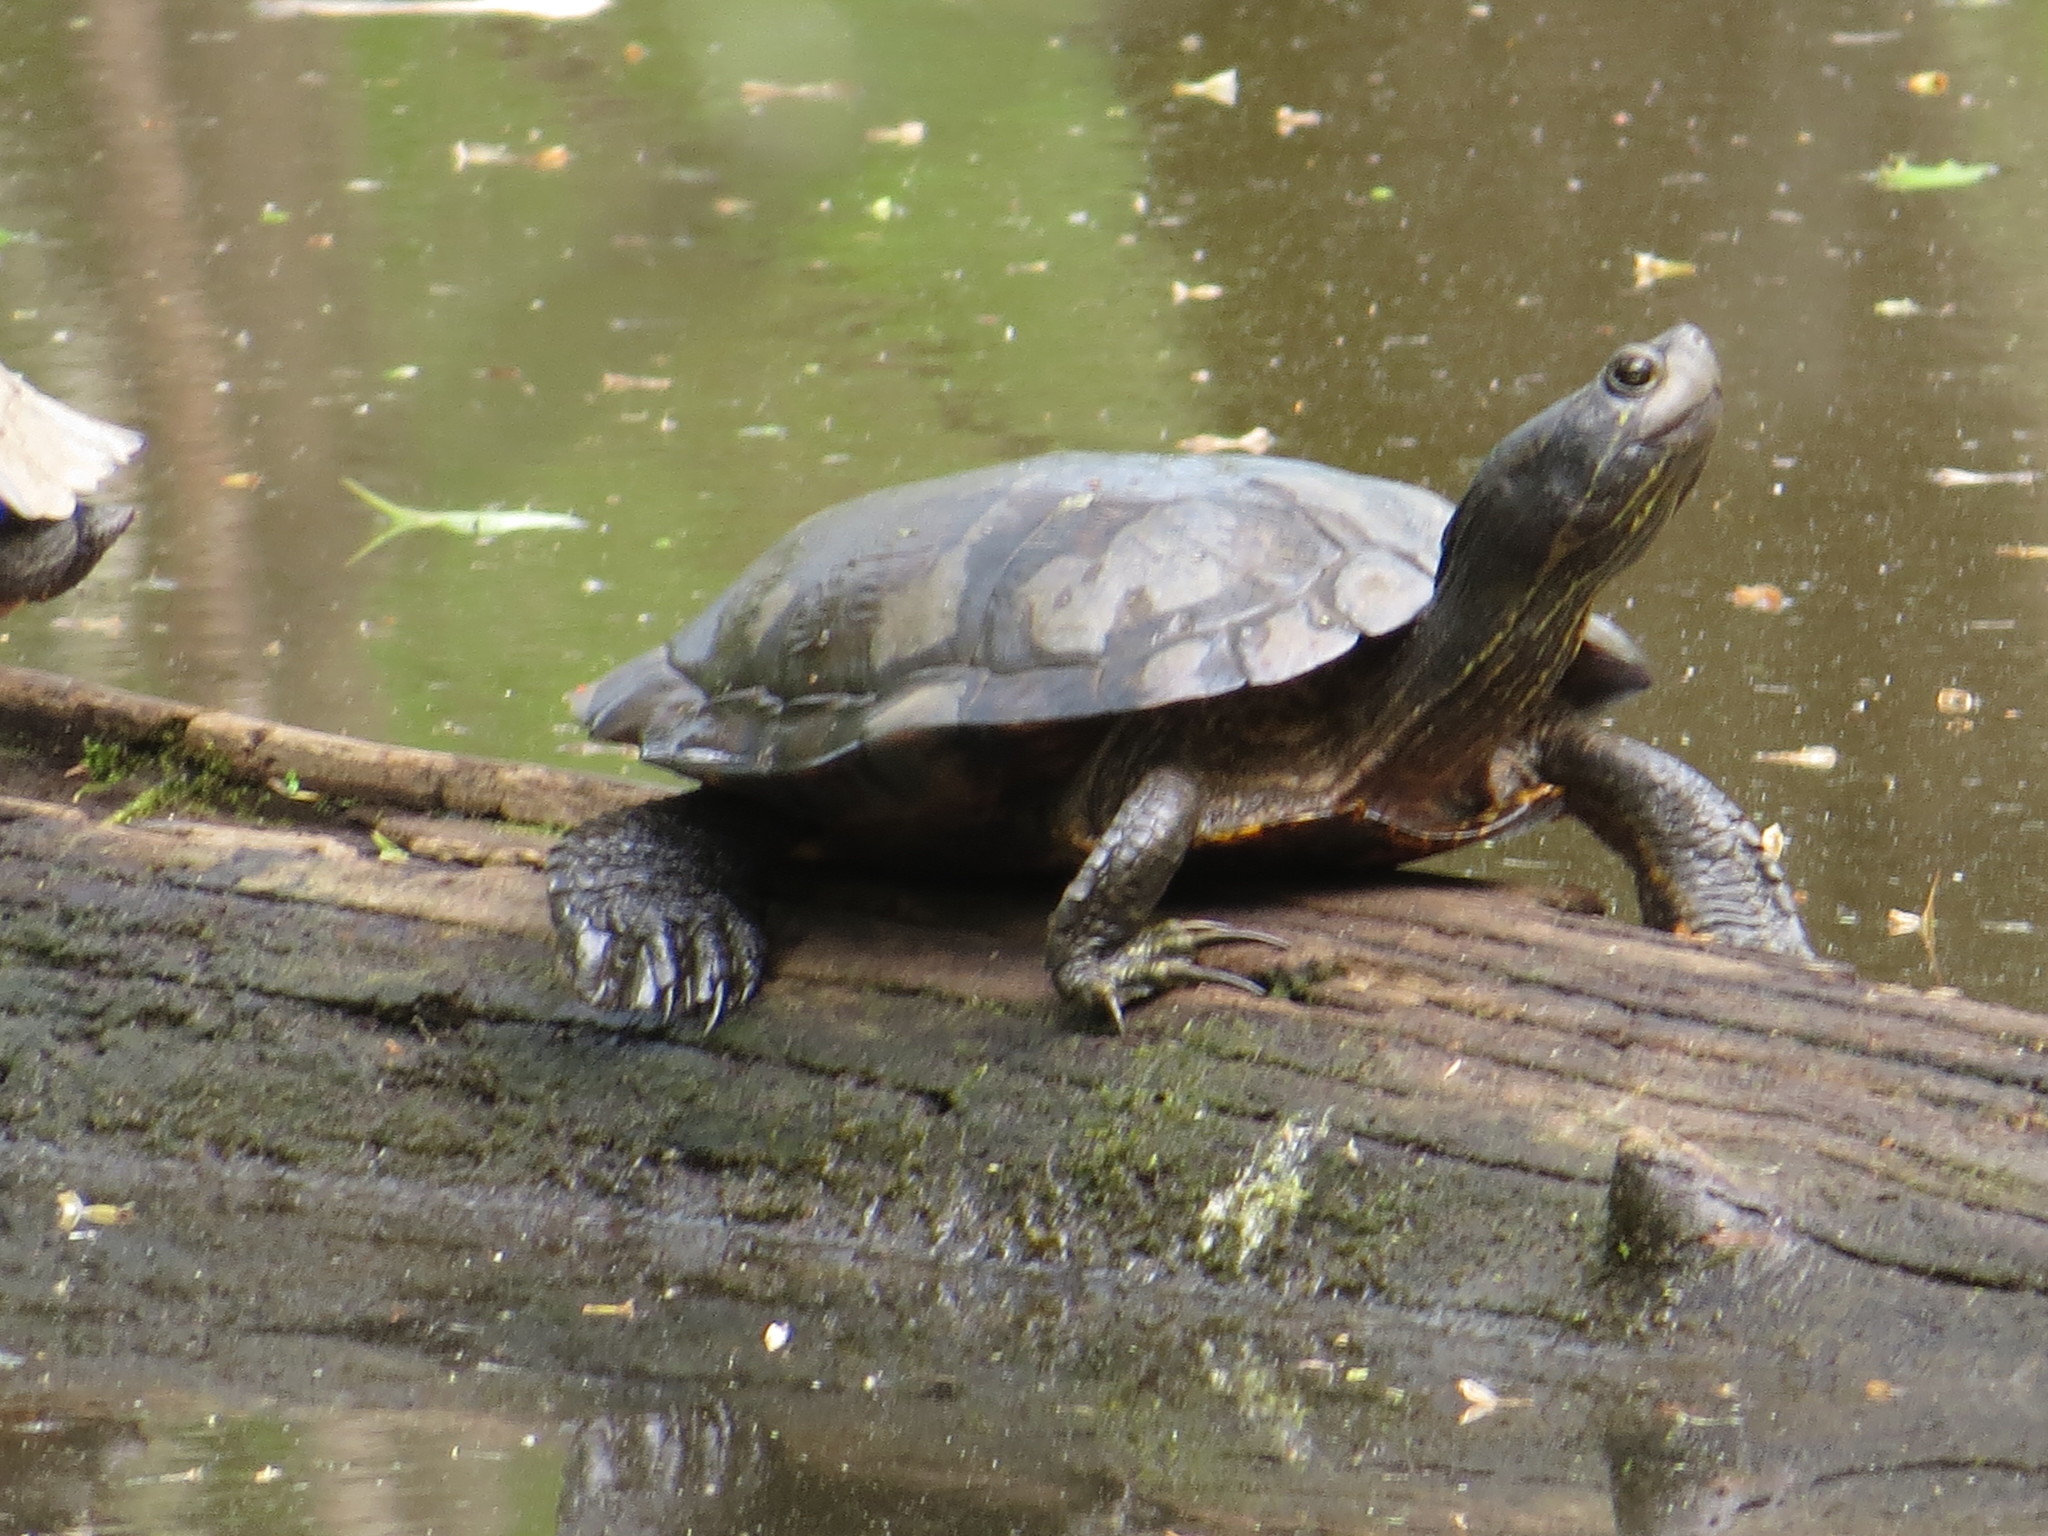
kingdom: Animalia
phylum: Chordata
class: Testudines
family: Emydidae
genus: Trachemys
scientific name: Trachemys scripta
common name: Slider
